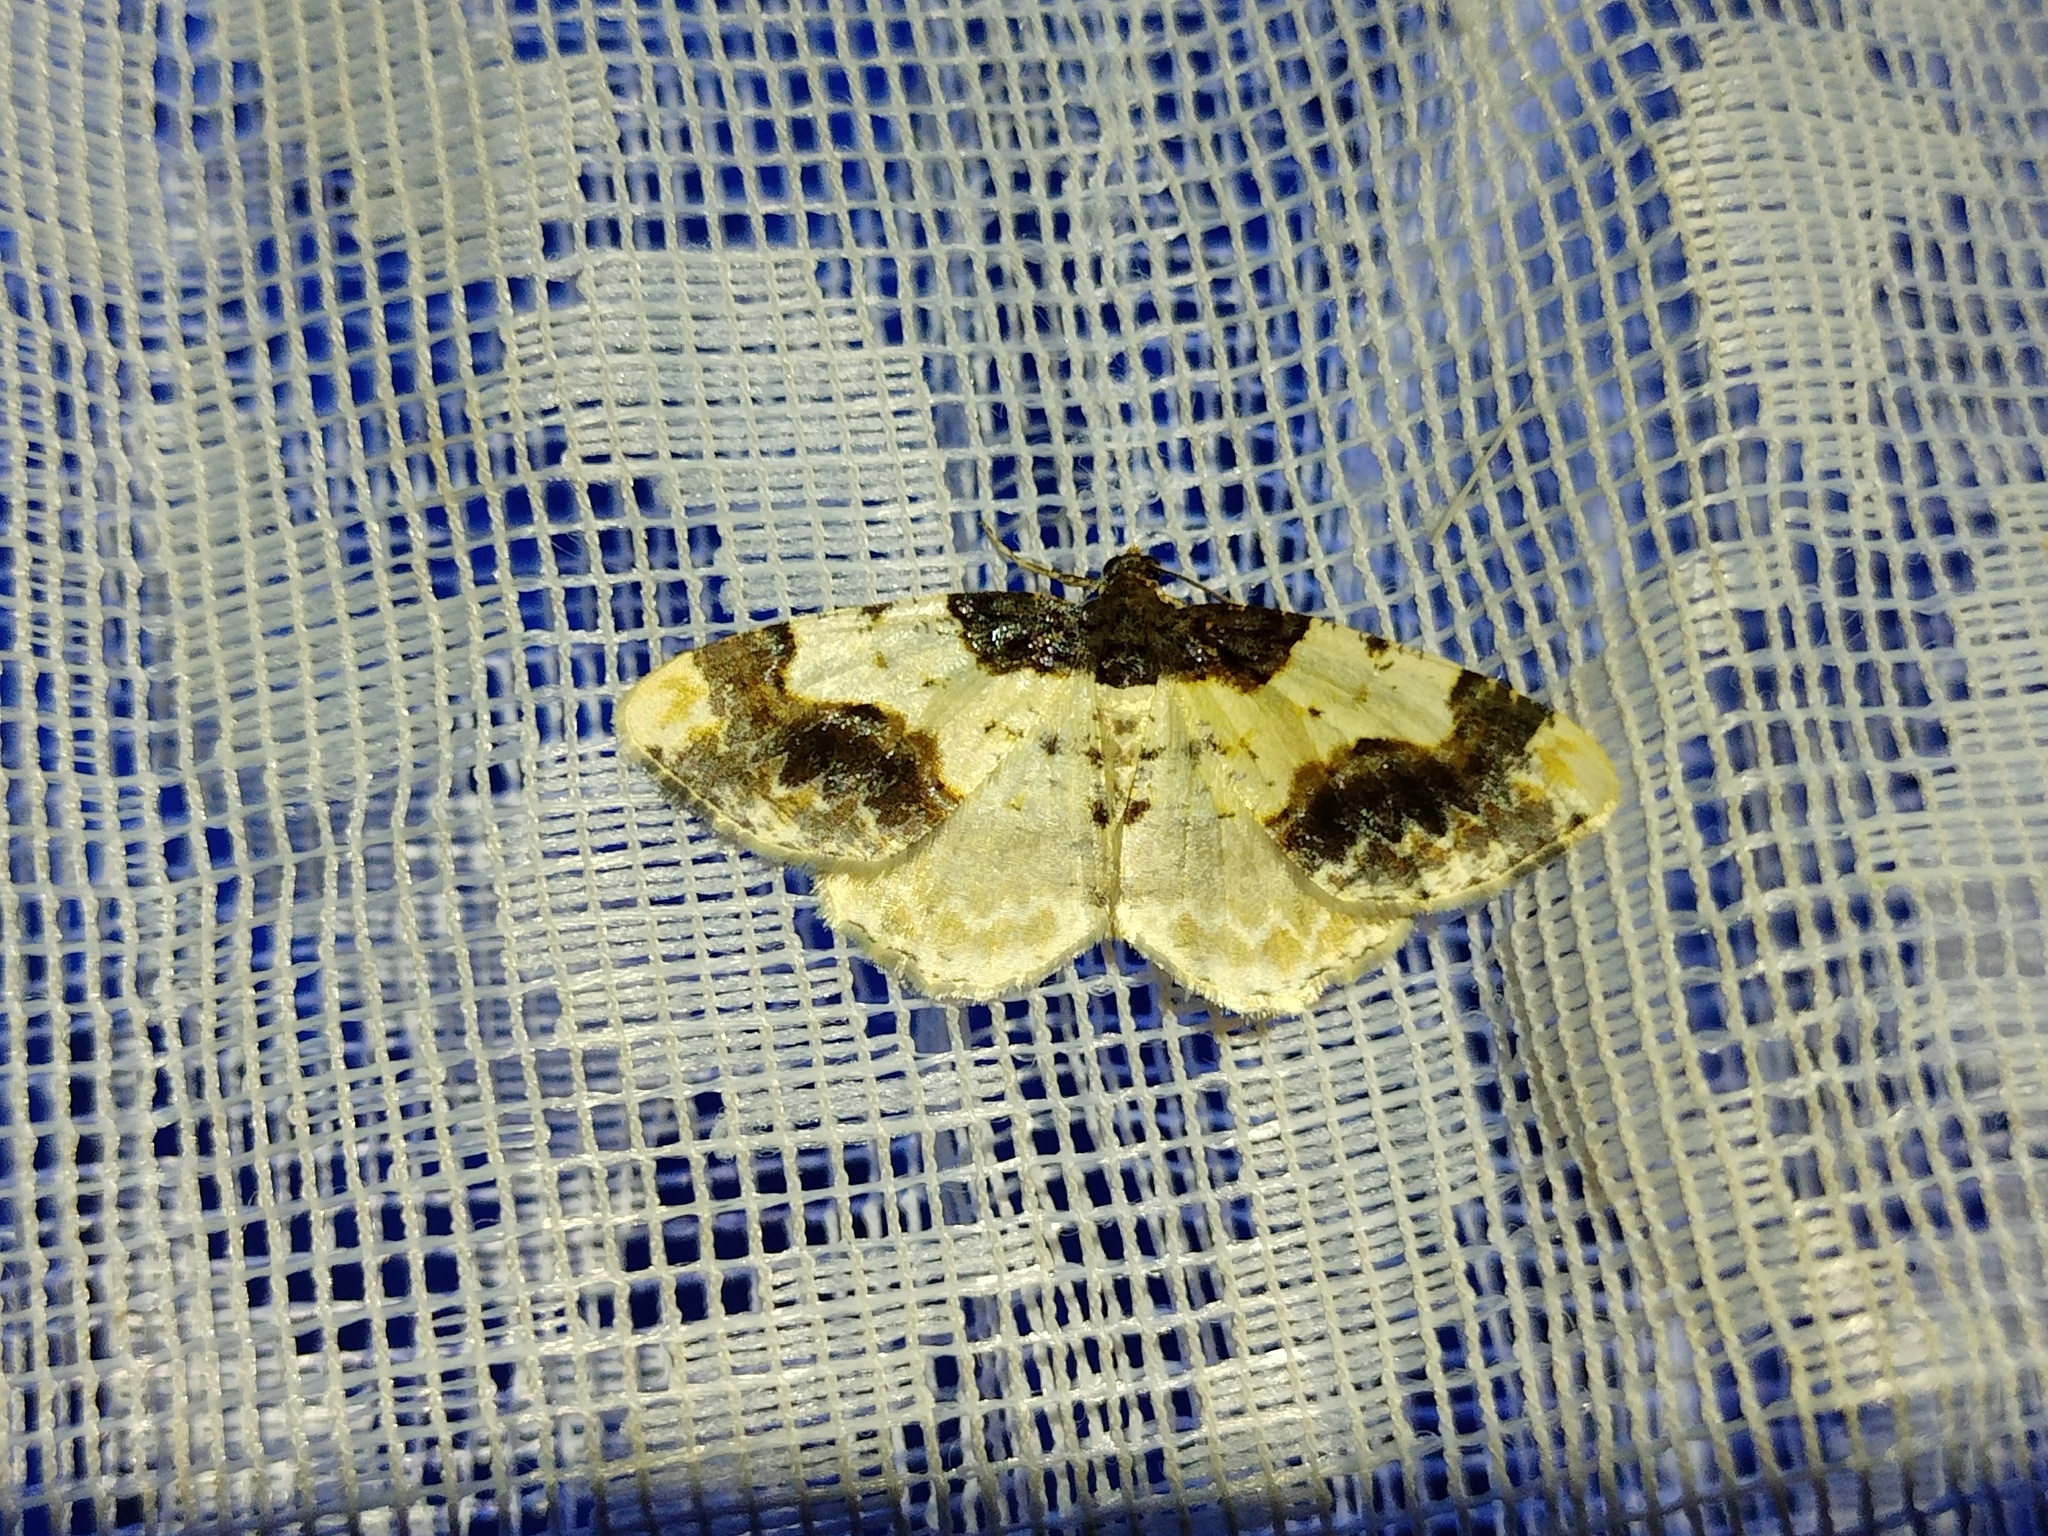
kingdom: Animalia
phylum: Arthropoda
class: Insecta
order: Lepidoptera
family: Geometridae
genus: Ligdia
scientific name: Ligdia adustata
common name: Scorched carpet
